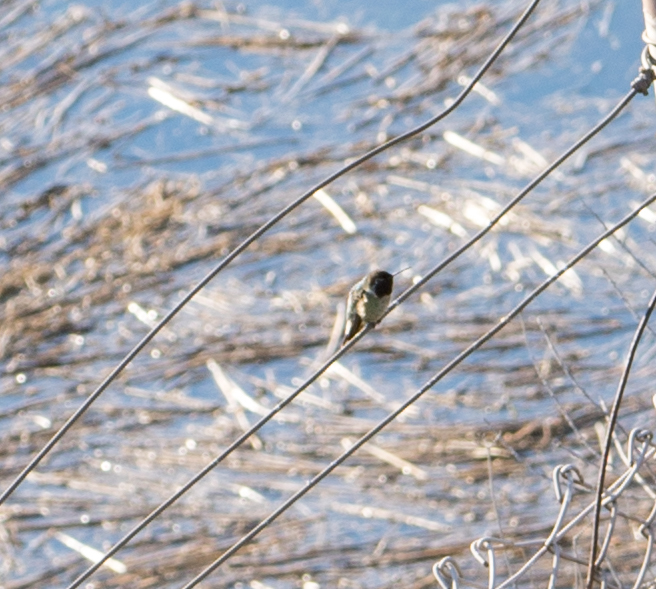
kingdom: Animalia
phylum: Chordata
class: Aves
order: Apodiformes
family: Trochilidae
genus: Calypte
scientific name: Calypte anna
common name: Anna's hummingbird
